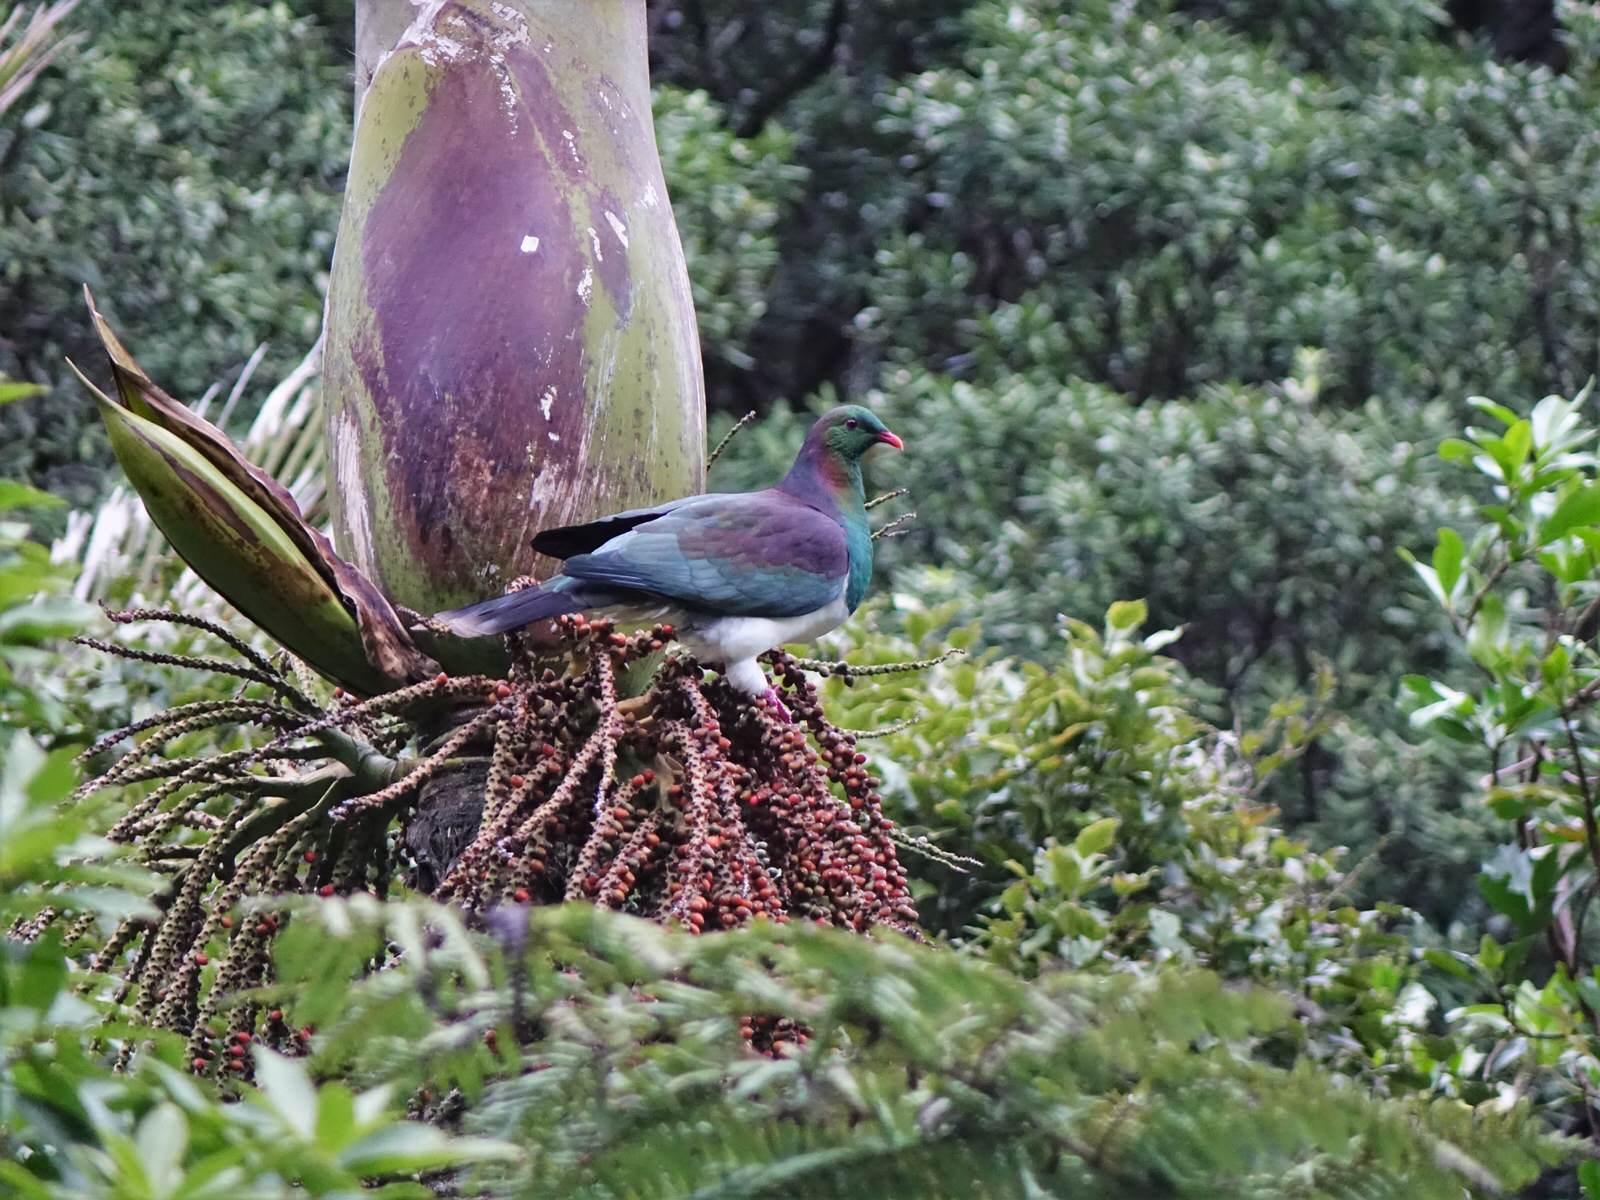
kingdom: Animalia
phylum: Chordata
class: Aves
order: Columbiformes
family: Columbidae
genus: Hemiphaga
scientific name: Hemiphaga novaeseelandiae
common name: New zealand pigeon
